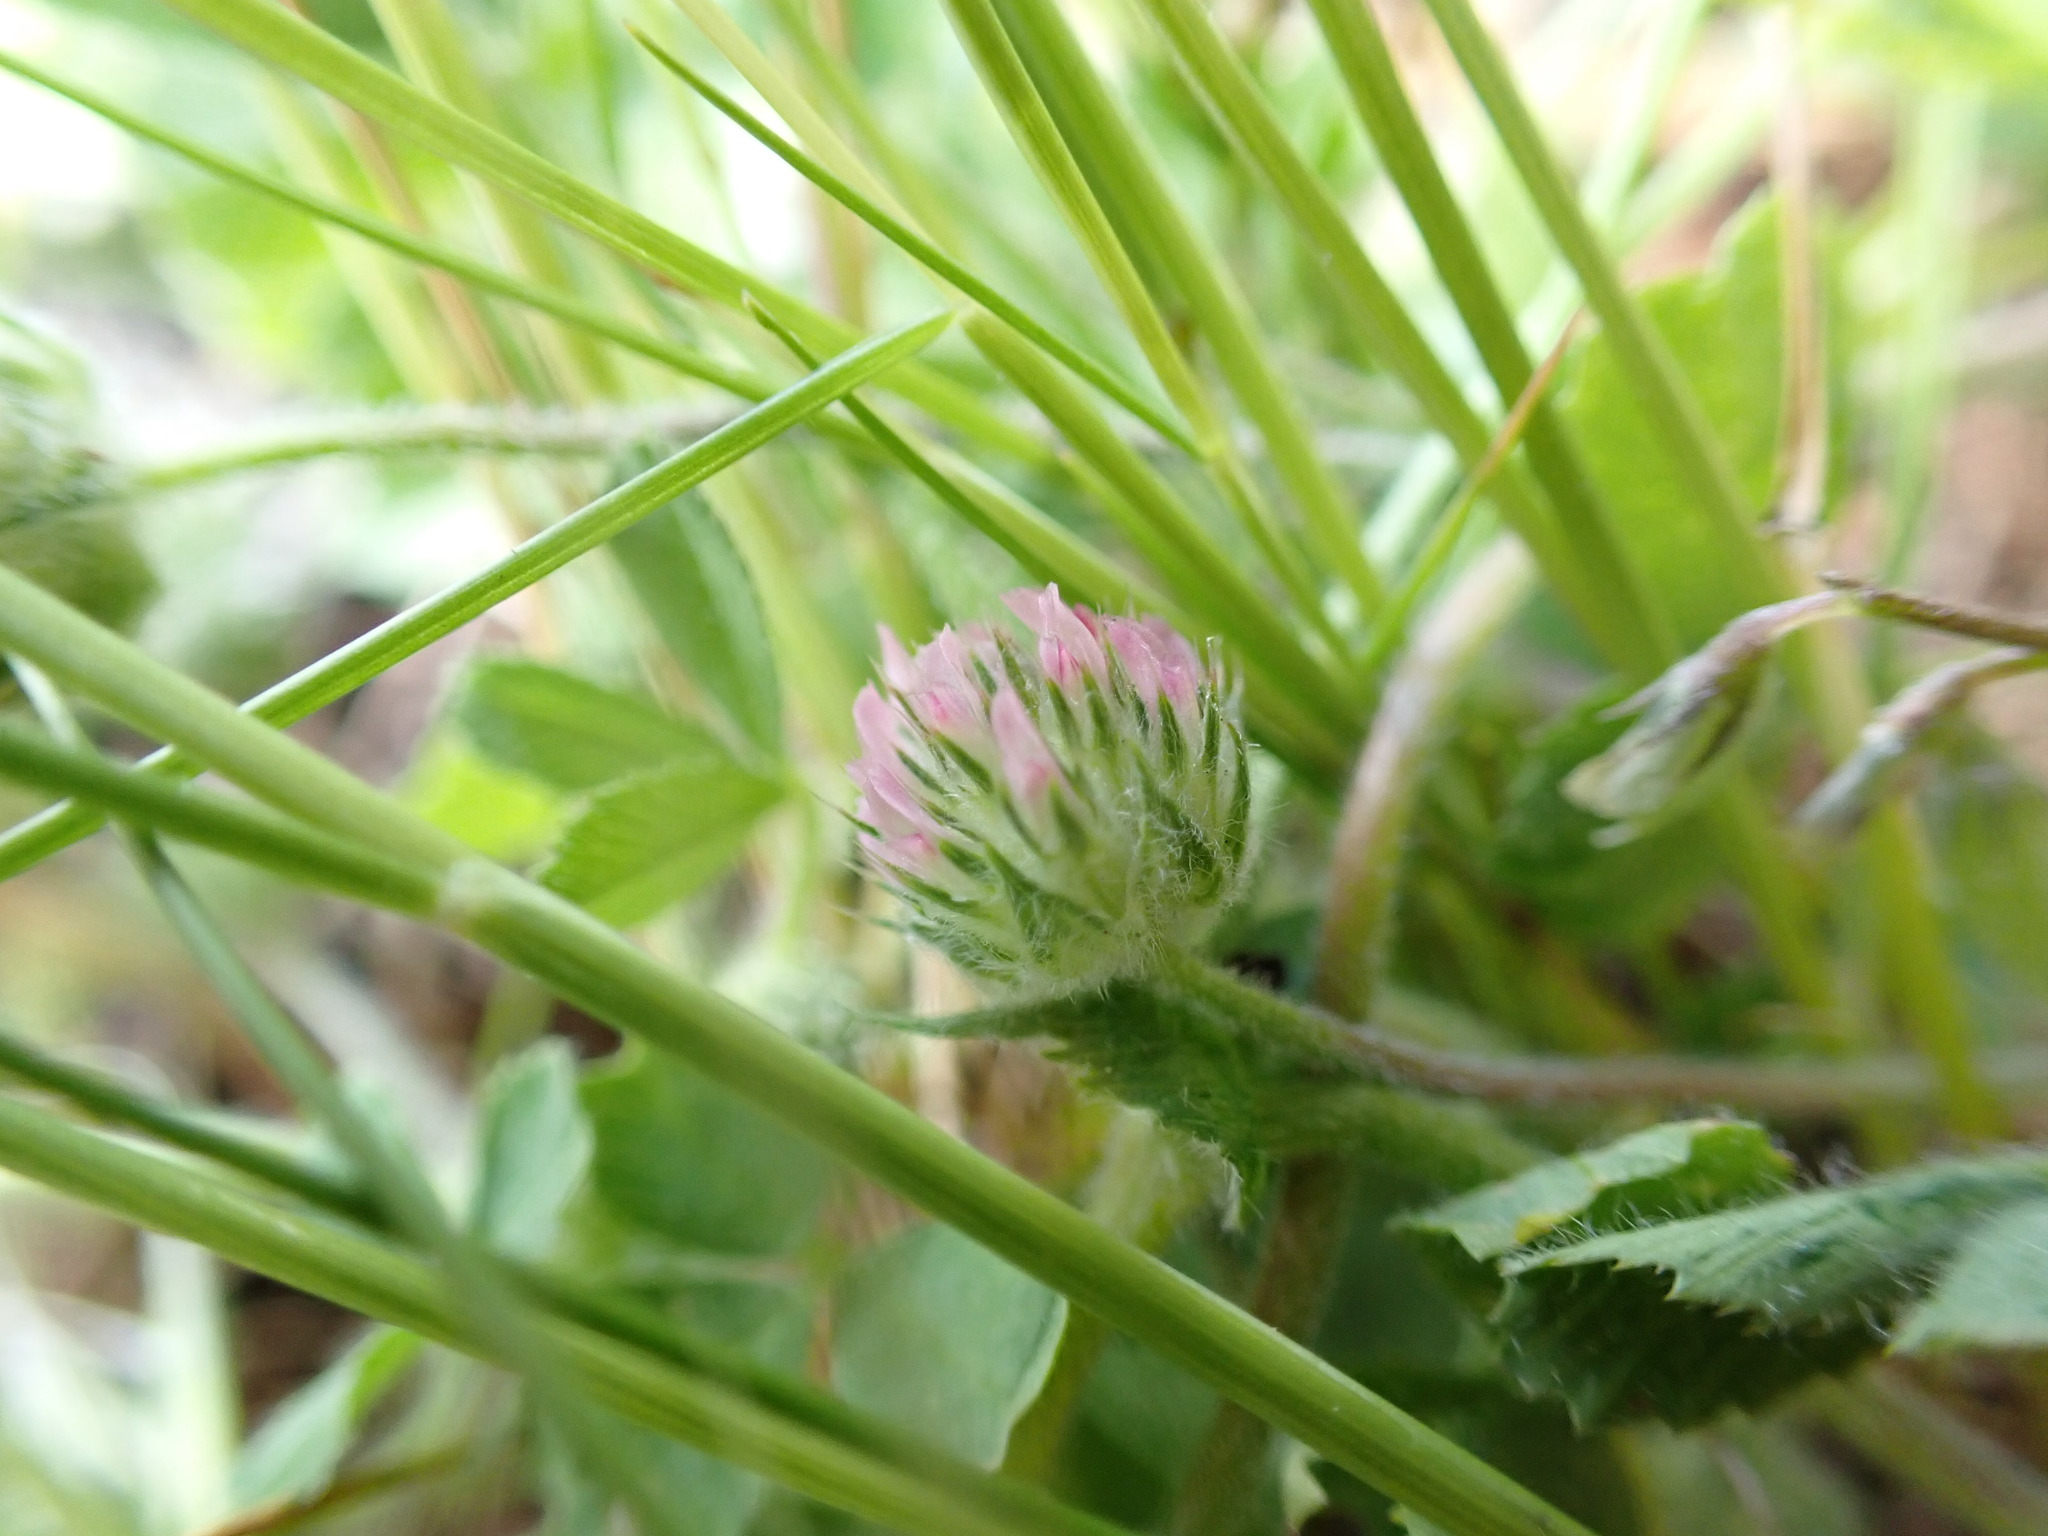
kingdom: Plantae
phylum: Tracheophyta
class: Magnoliopsida
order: Fabales
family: Fabaceae
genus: Trifolium
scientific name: Trifolium microcephalum
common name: Maiden clover
